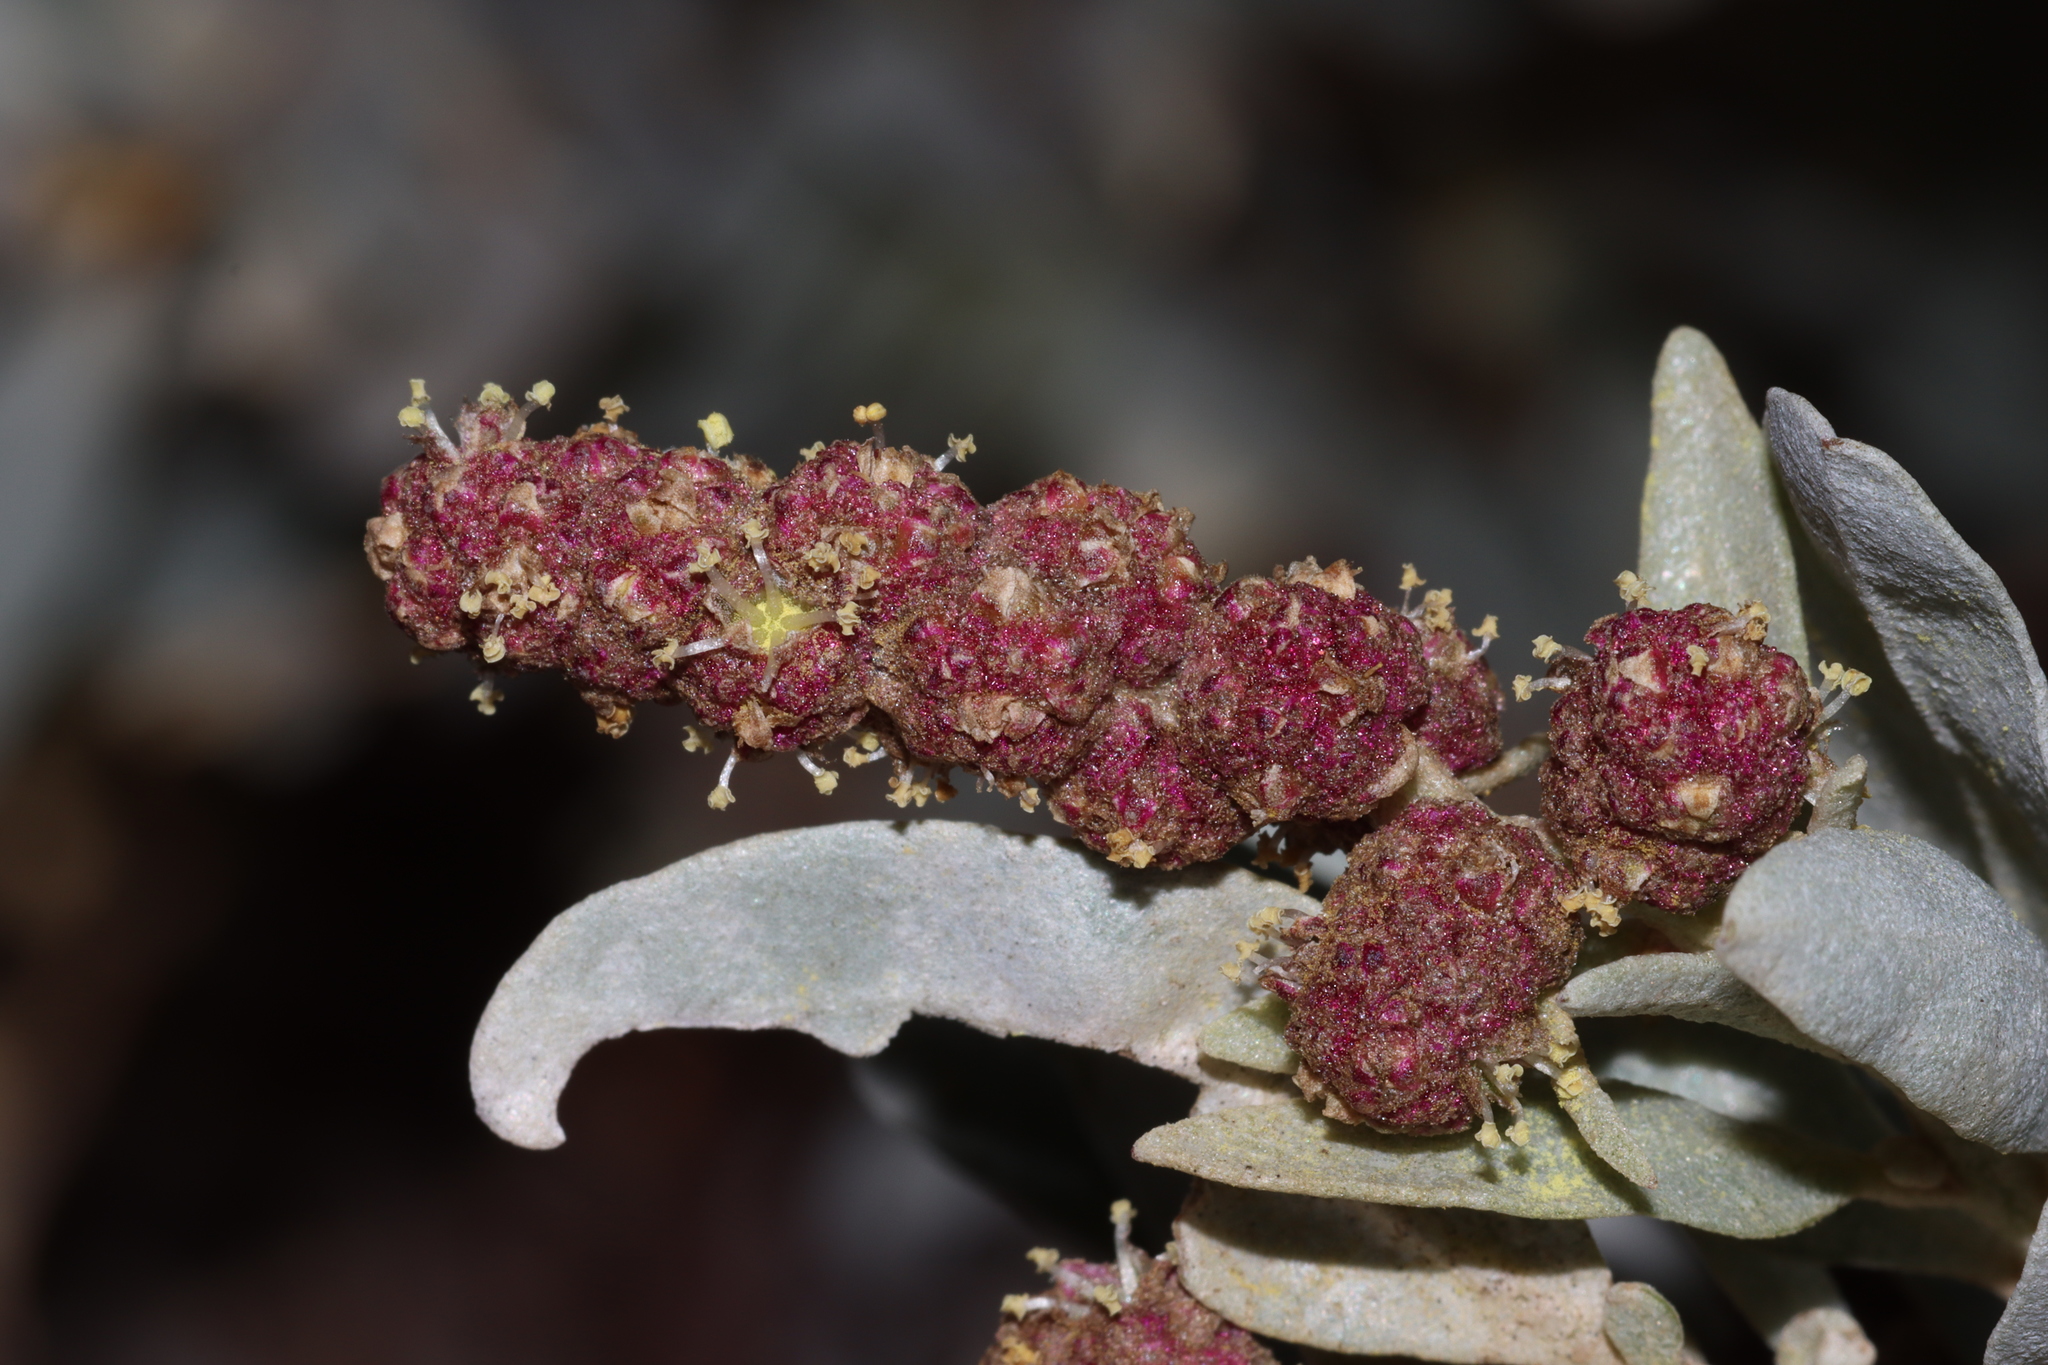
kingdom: Plantae
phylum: Tracheophyta
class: Magnoliopsida
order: Caryophyllales
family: Amaranthaceae
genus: Atriplex
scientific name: Atriplex cinerea
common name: Grey saltbush
